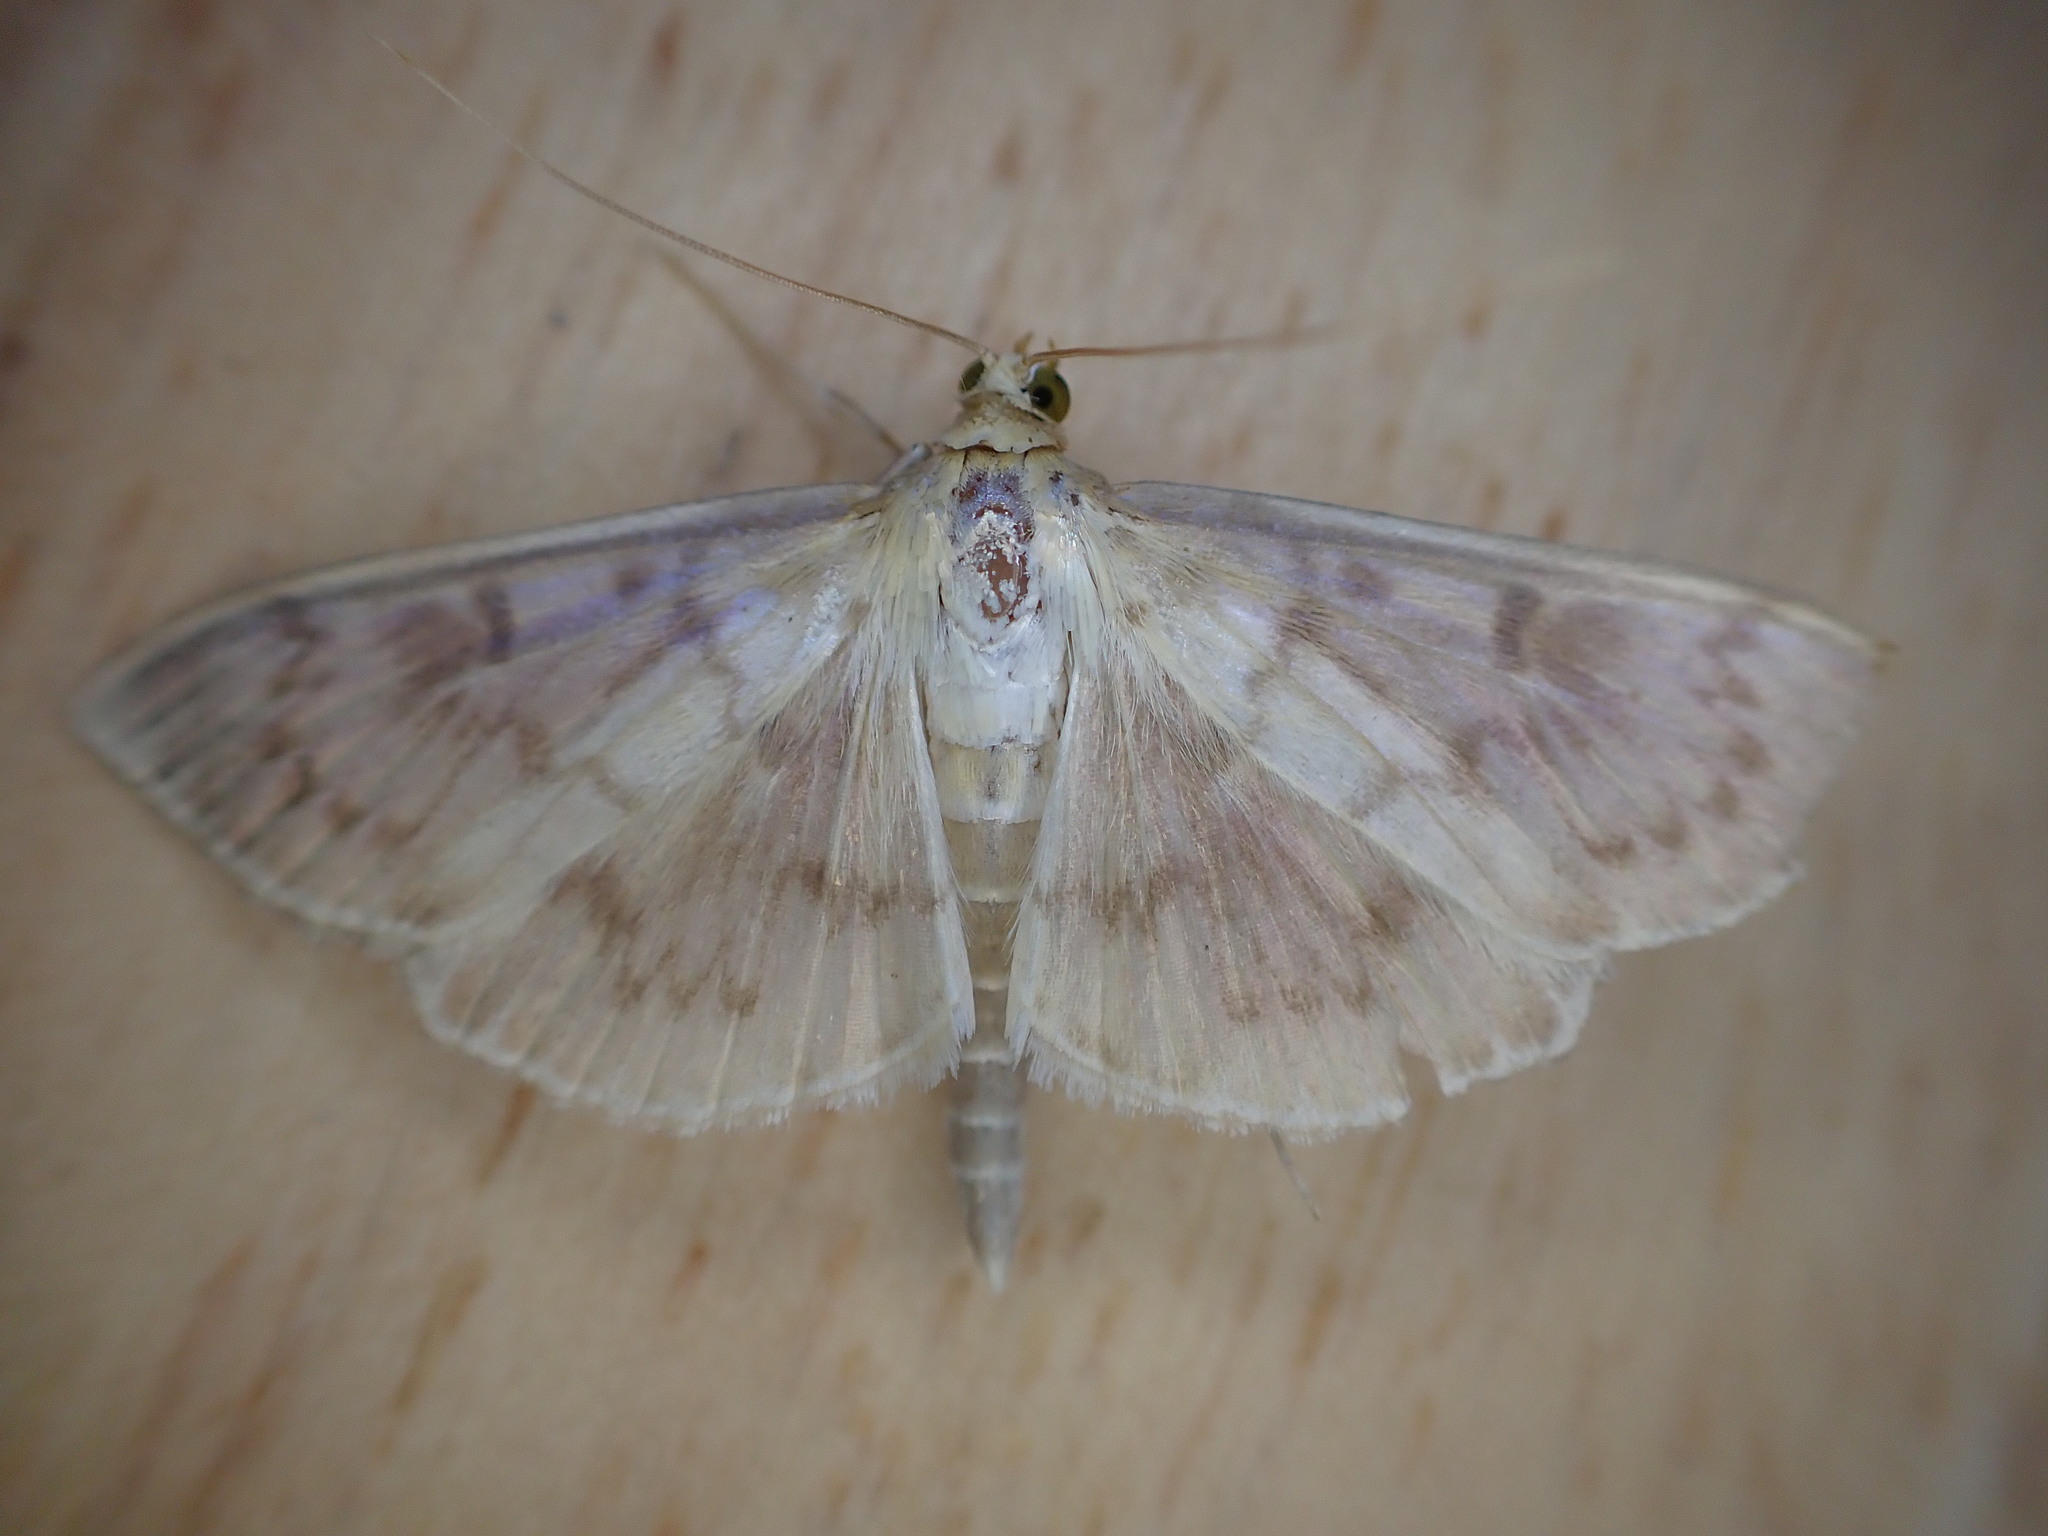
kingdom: Animalia
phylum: Arthropoda
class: Insecta
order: Lepidoptera
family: Crambidae
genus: Patania
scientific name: Patania ruralis
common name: Mother of pearl
